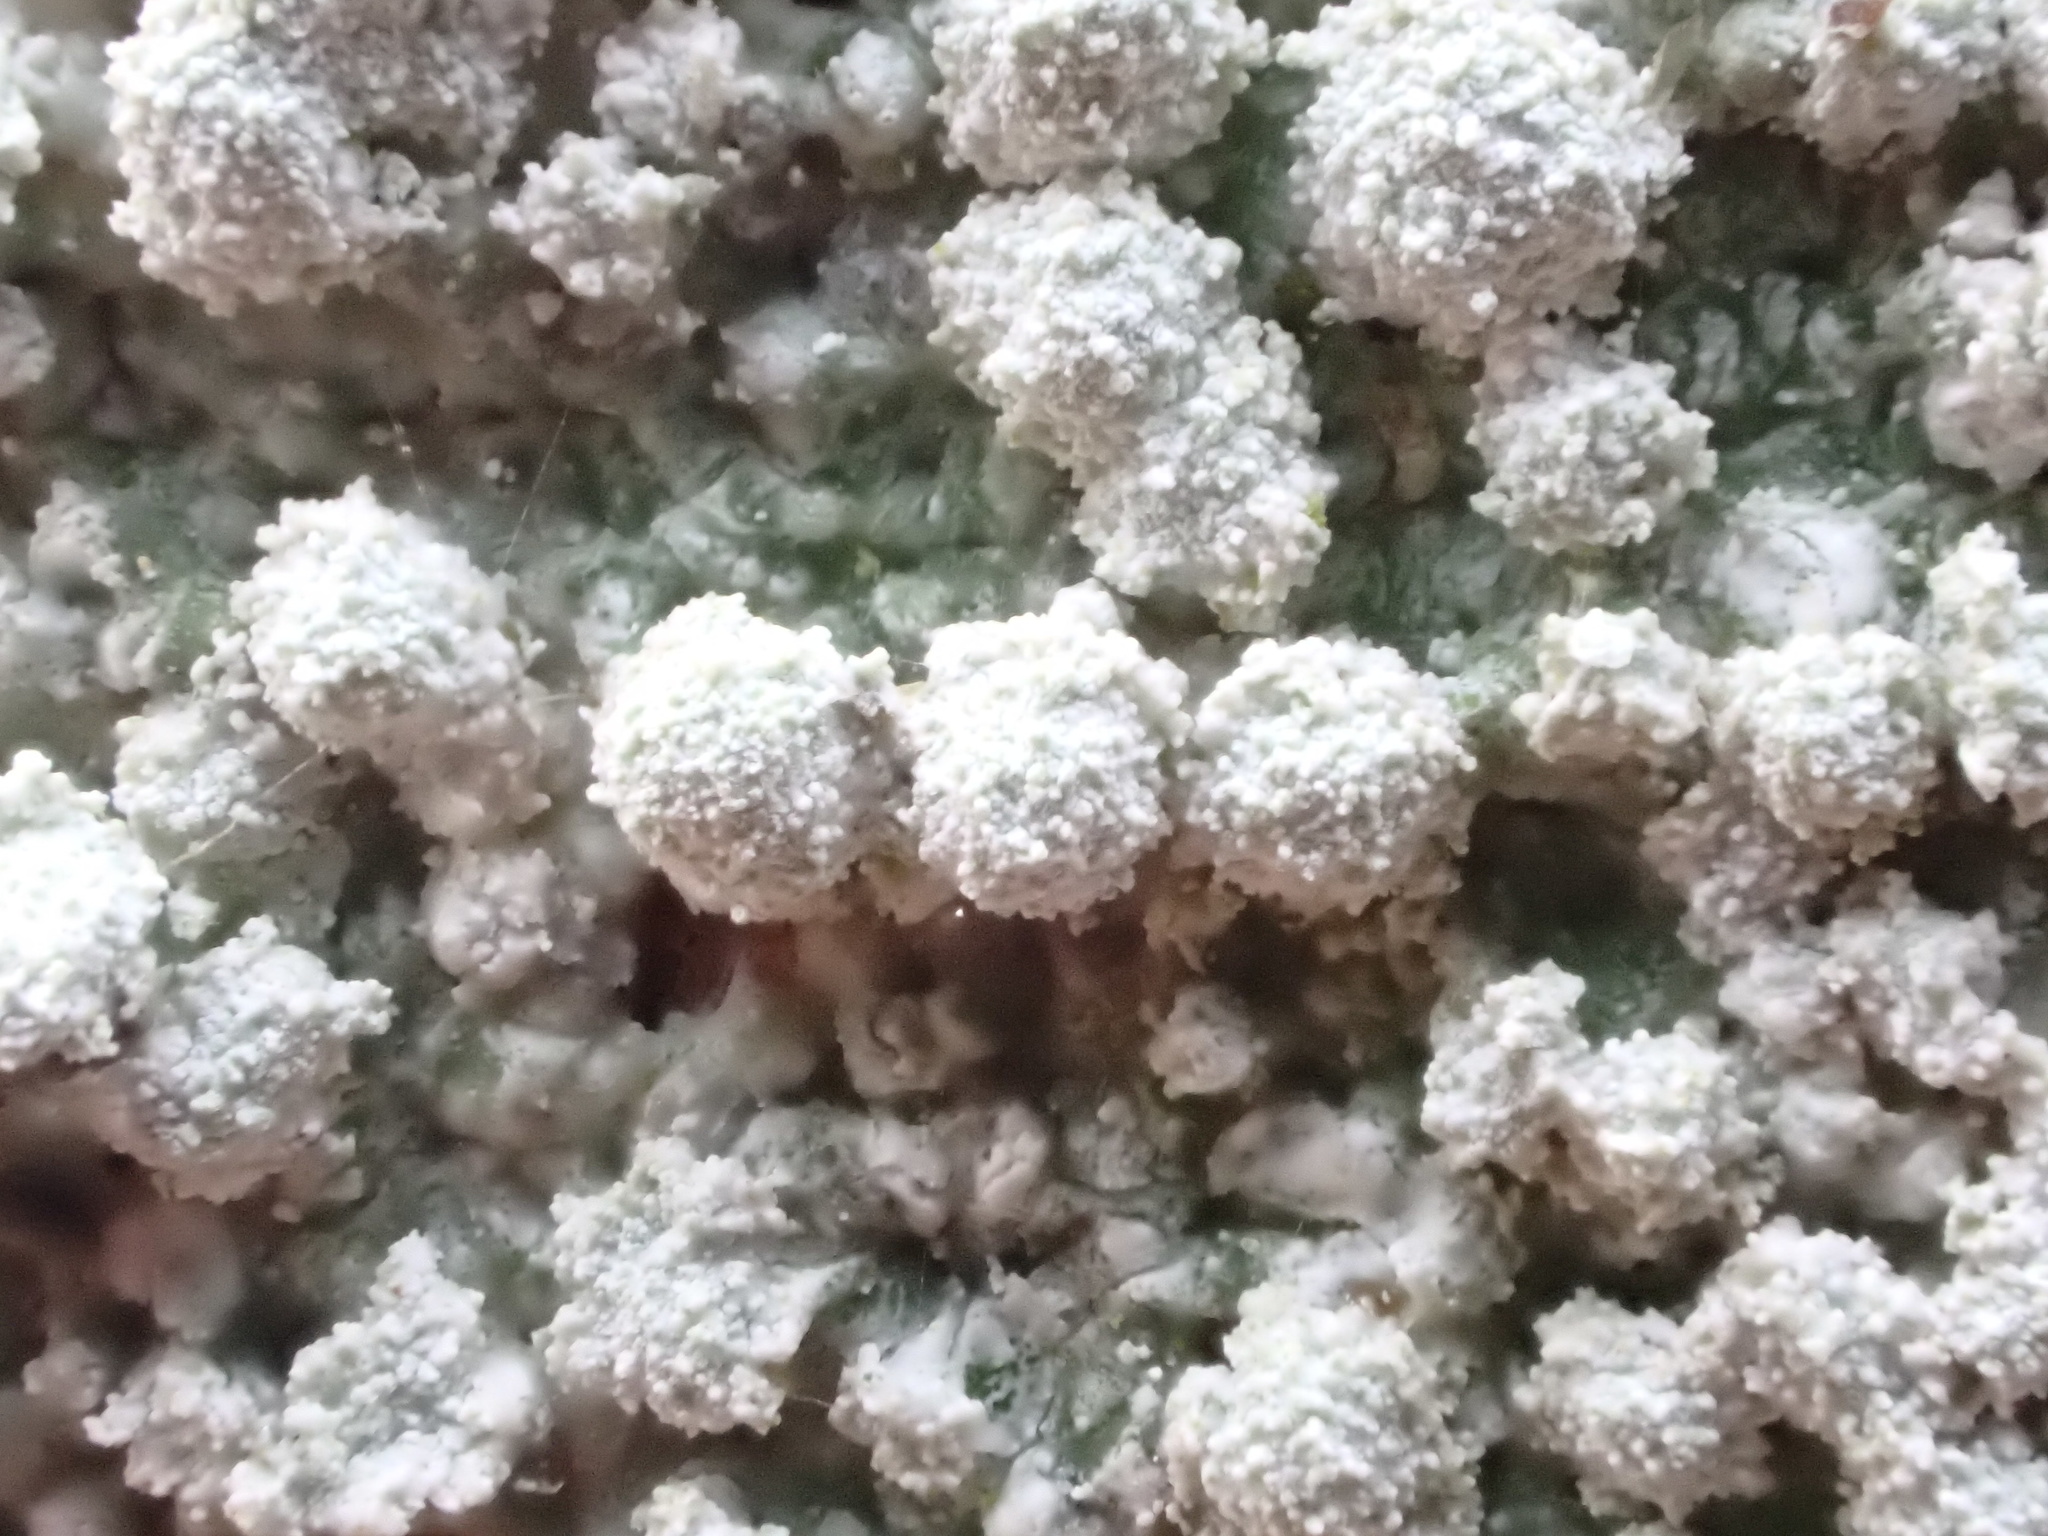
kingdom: Fungi
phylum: Ascomycota
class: Lecanoromycetes
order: Pertusariales
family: Pertusariaceae
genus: Lepra
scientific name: Lepra amara
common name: Bitter wart lichen
